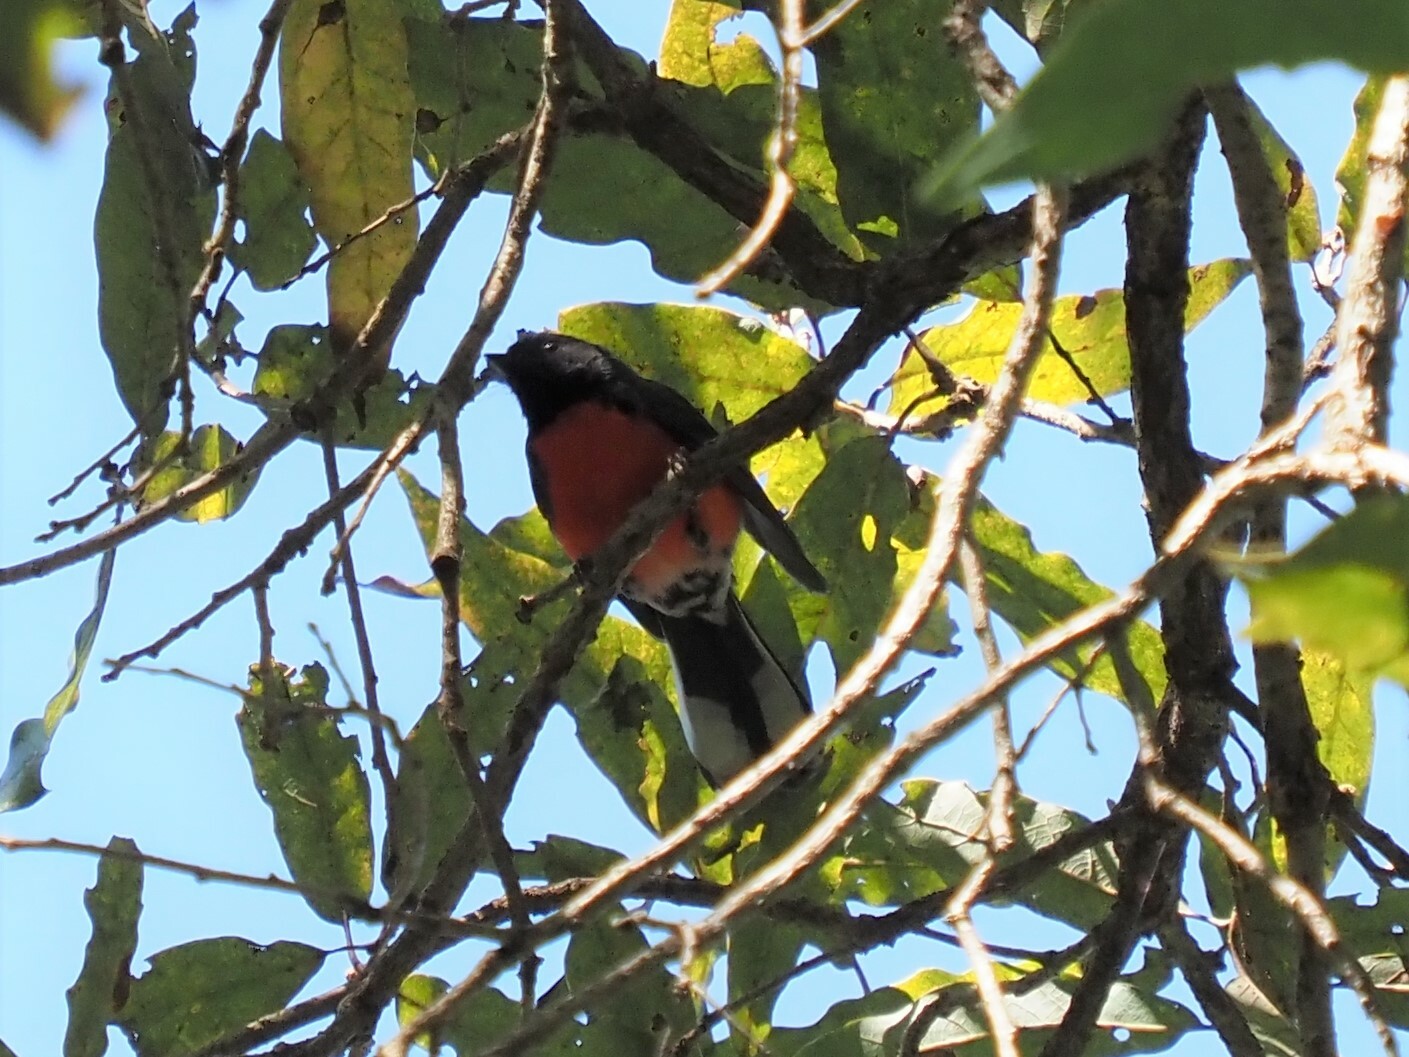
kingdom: Animalia
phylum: Chordata
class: Aves
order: Passeriformes
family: Parulidae
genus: Myioborus
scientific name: Myioborus miniatus
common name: Slate-throated redstart
